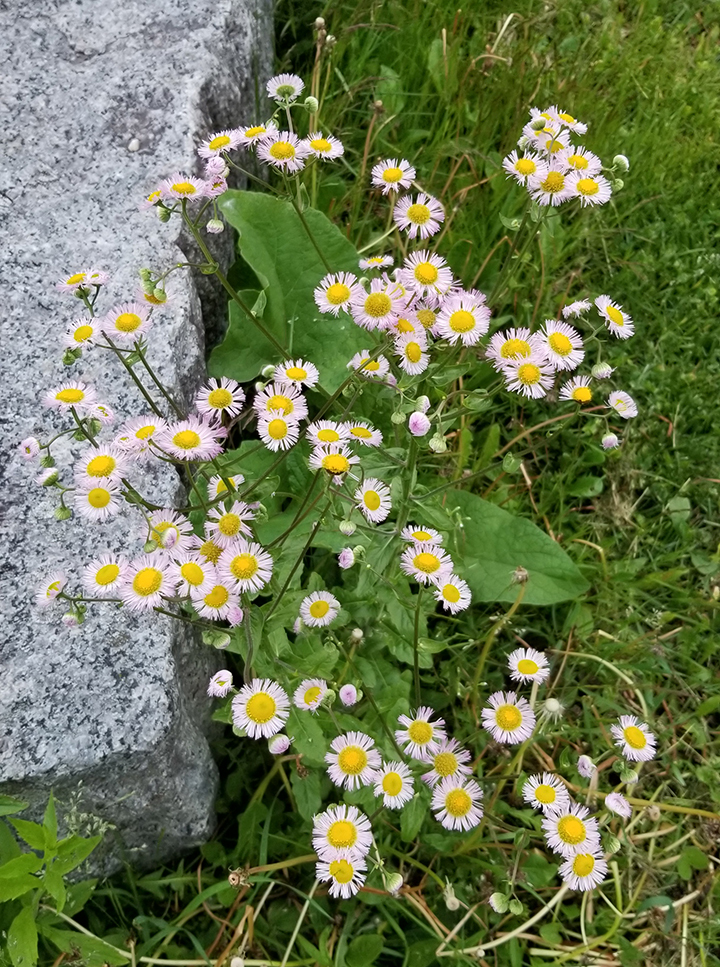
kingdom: Plantae
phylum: Tracheophyta
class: Magnoliopsida
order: Asterales
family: Asteraceae
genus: Erigeron
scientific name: Erigeron philadelphicus
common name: Robin's-plantain
